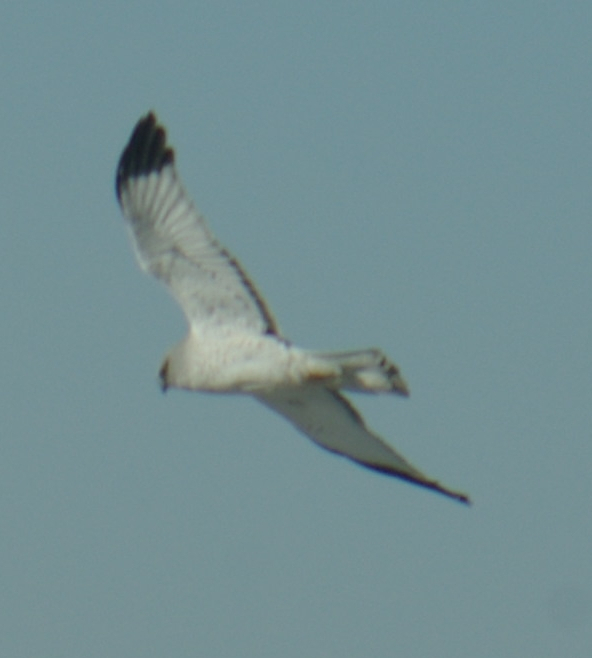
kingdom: Animalia
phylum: Chordata
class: Aves
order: Accipitriformes
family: Accipitridae
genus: Circus
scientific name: Circus cyaneus
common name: Hen harrier
